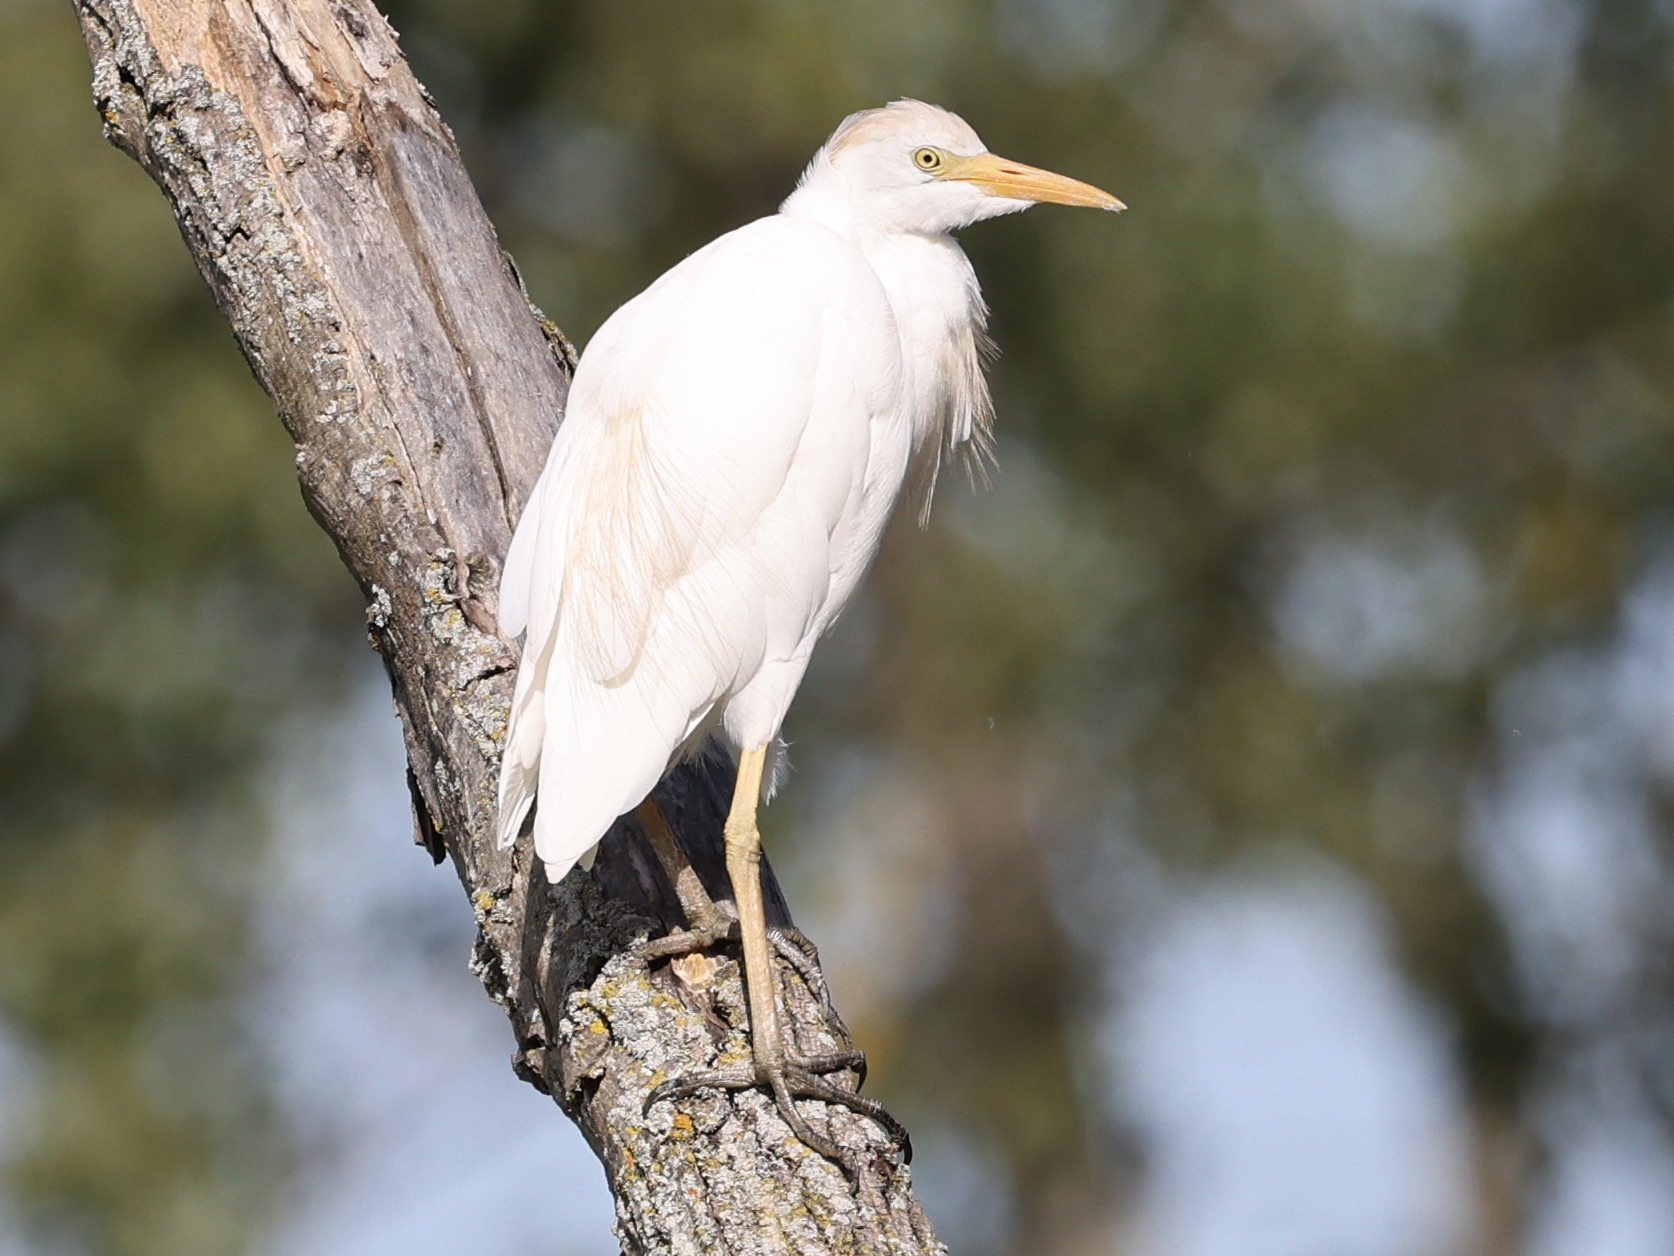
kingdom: Animalia
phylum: Chordata
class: Aves
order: Pelecaniformes
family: Ardeidae
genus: Bubulcus
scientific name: Bubulcus ibis
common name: Cattle egret
